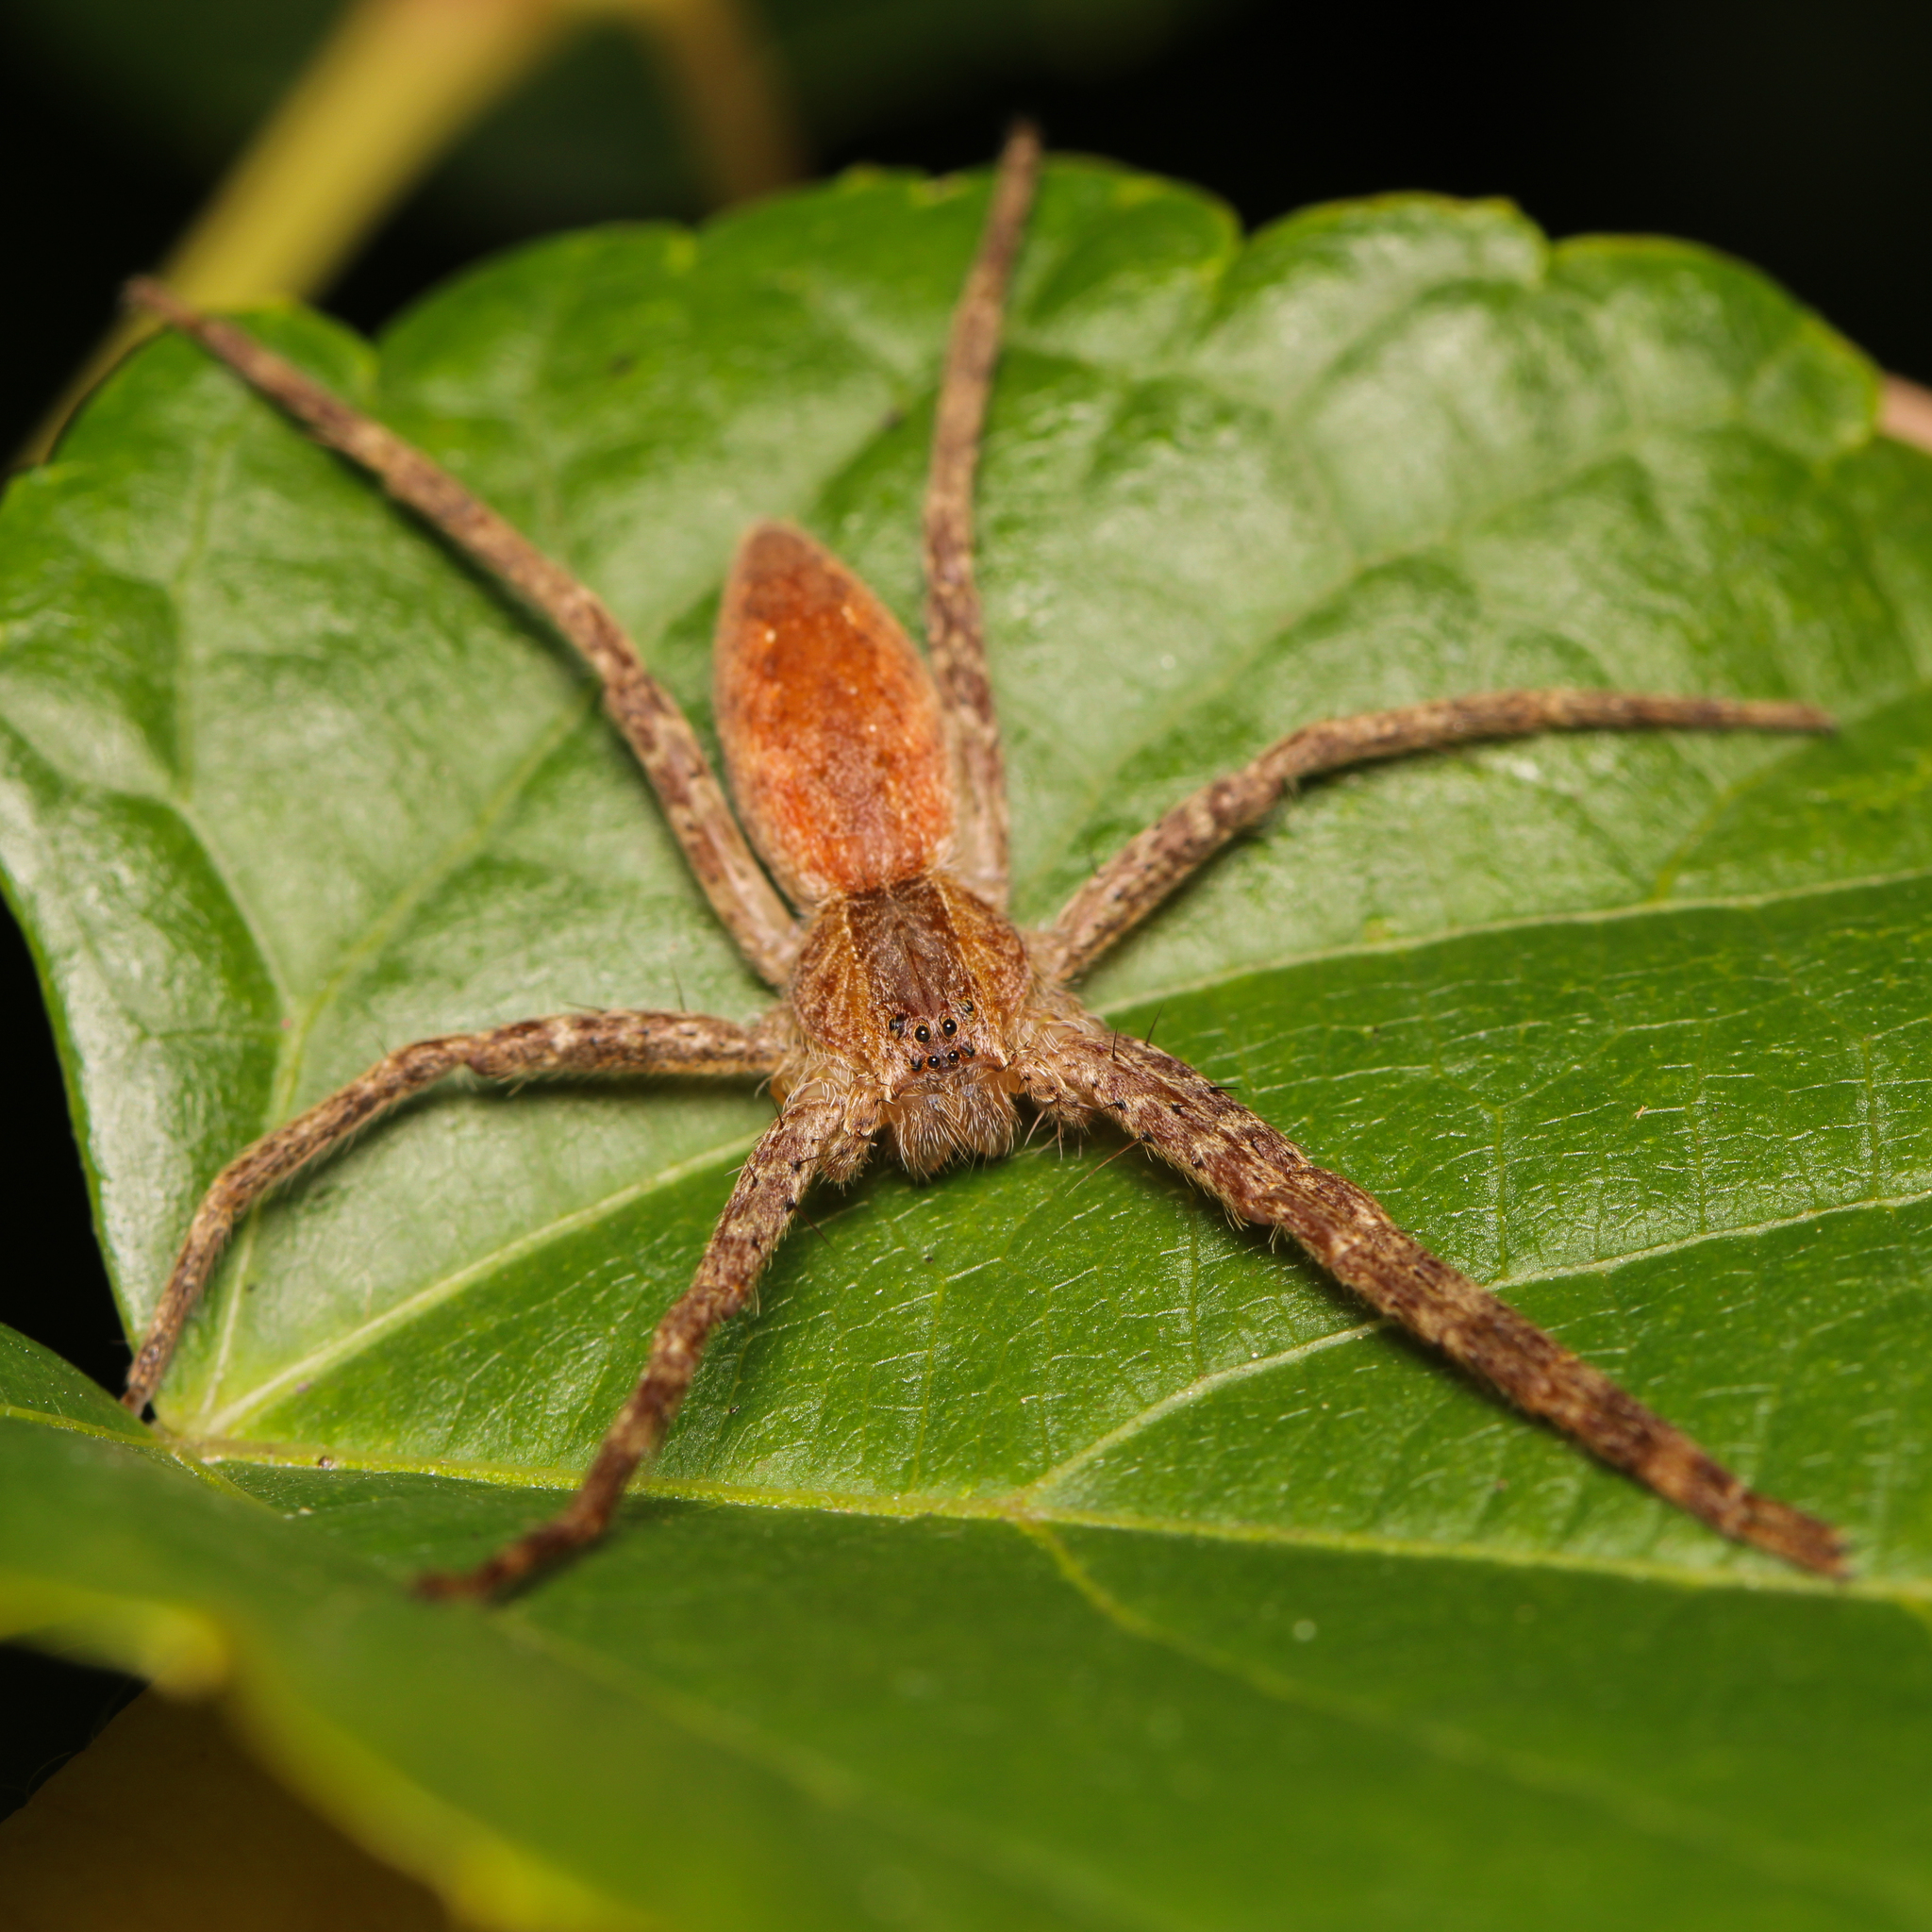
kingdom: Animalia
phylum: Arthropoda
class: Arachnida
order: Araneae
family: Pisauridae
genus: Pisaurina
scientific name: Pisaurina mira
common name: American nursery web spider
